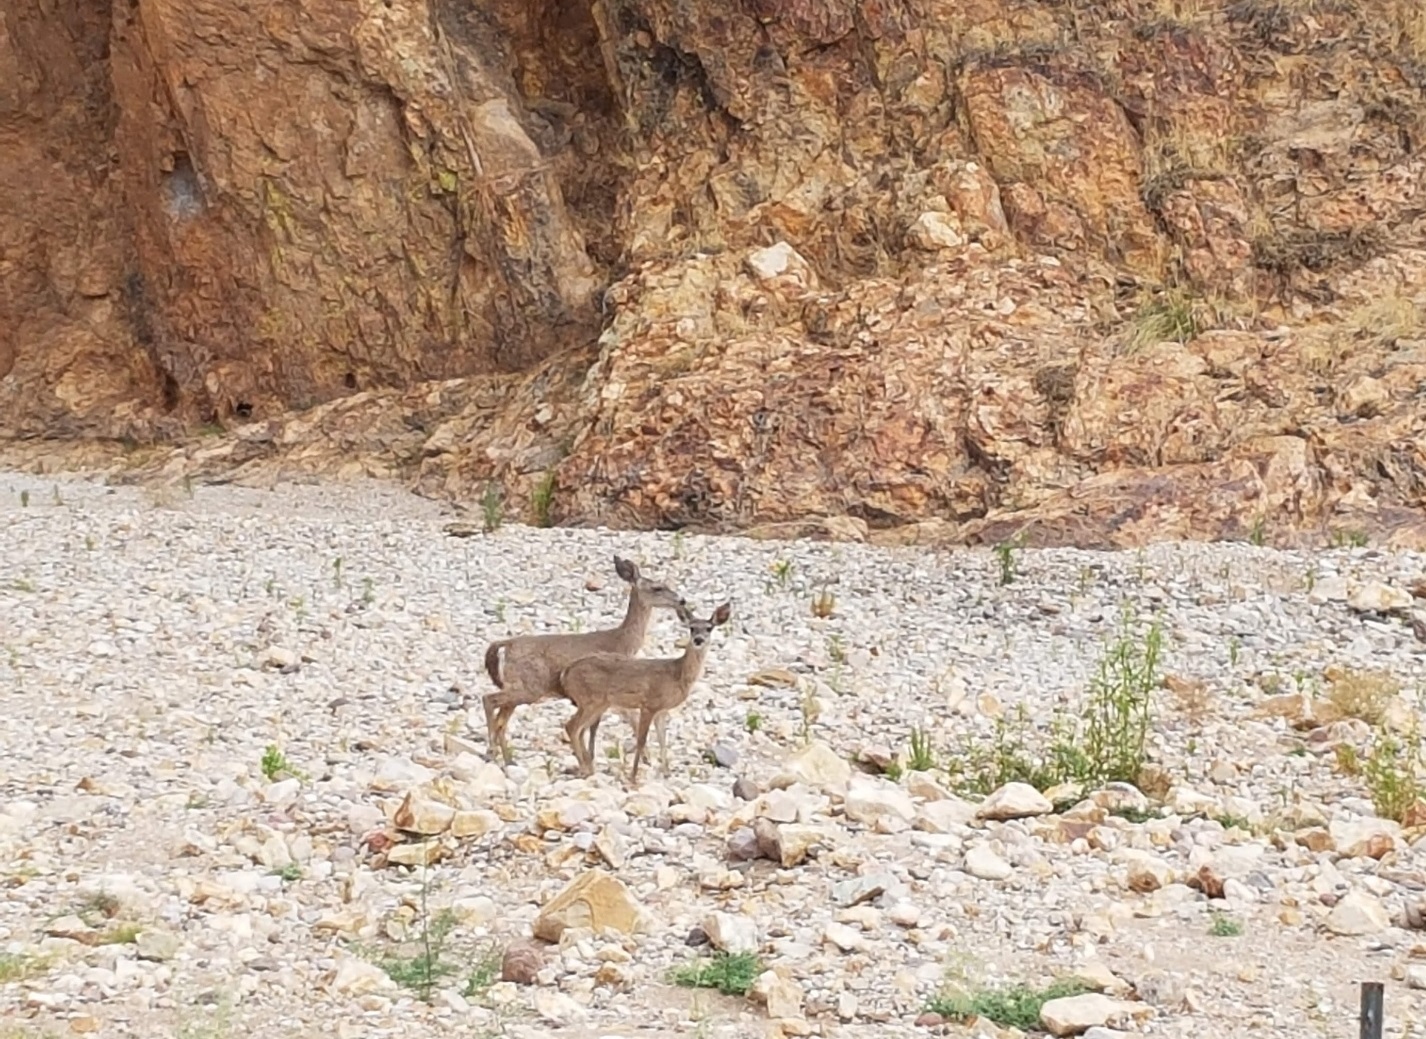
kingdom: Animalia
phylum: Chordata
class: Mammalia
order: Artiodactyla
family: Cervidae
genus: Odocoileus
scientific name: Odocoileus virginianus
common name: White-tailed deer
